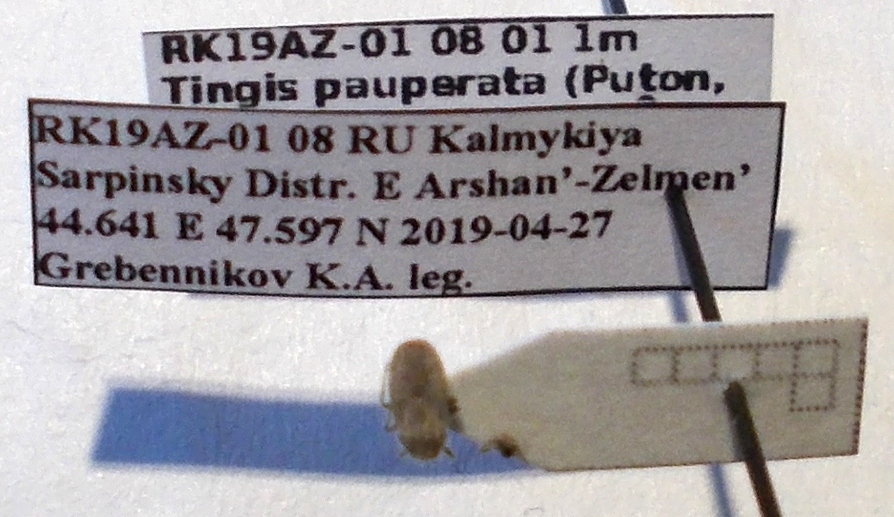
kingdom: Animalia
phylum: Arthropoda
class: Insecta
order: Hemiptera
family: Tingidae
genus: Tingis
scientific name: Tingis pauperata
